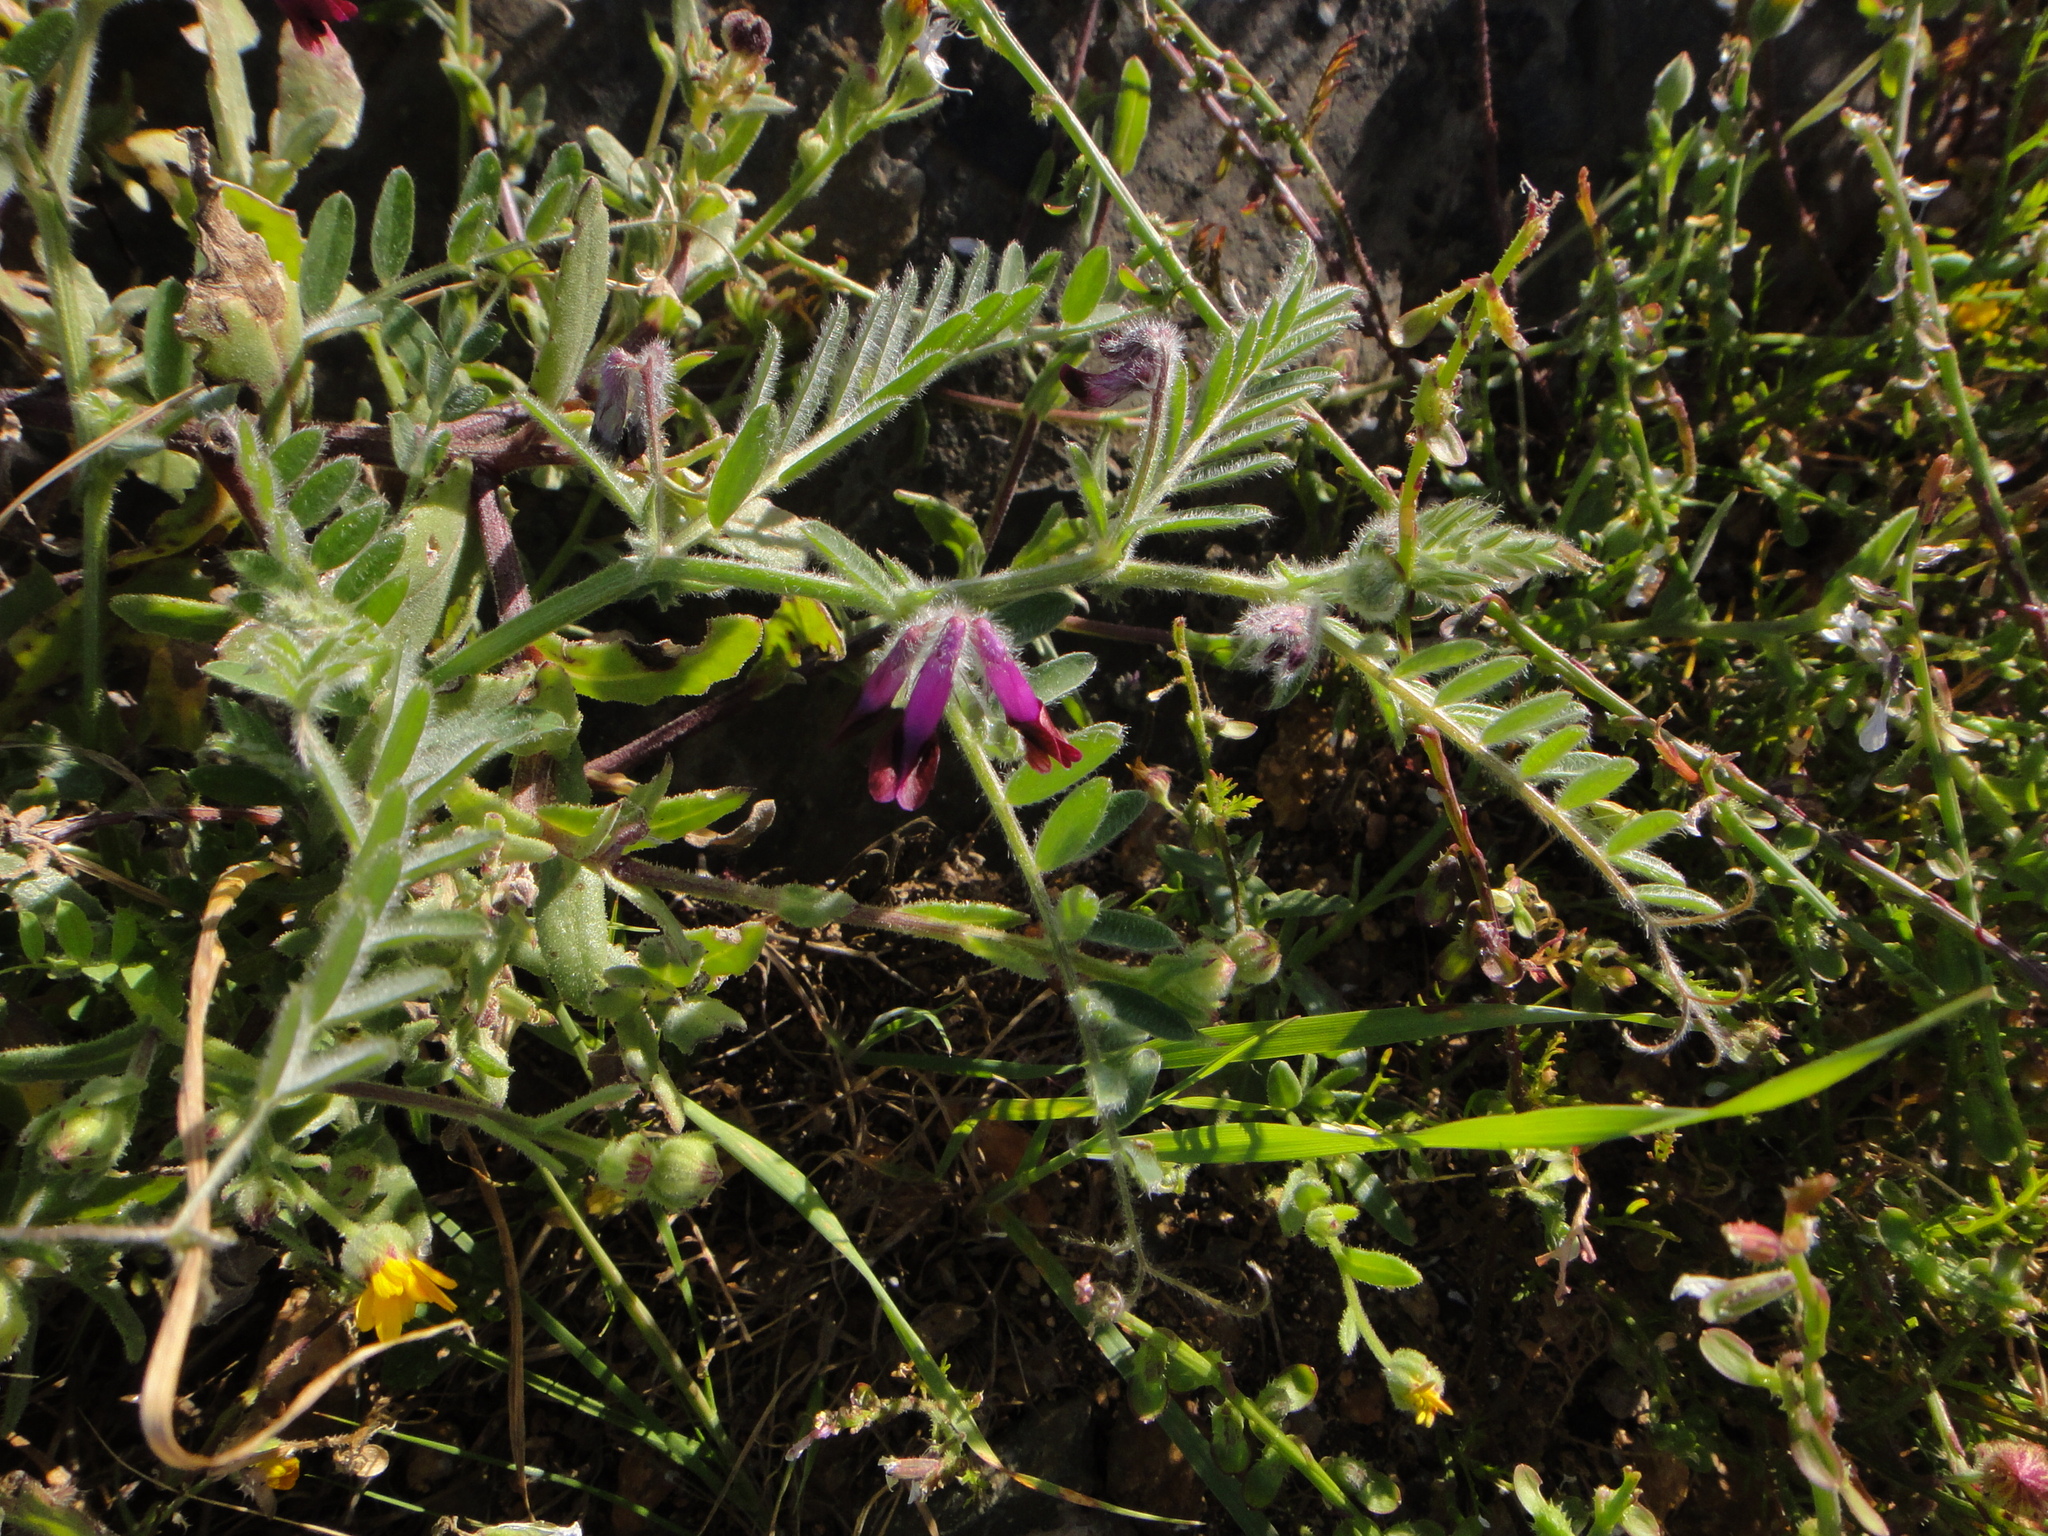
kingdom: Plantae
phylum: Tracheophyta
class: Magnoliopsida
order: Fabales
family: Fabaceae
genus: Vicia
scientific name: Vicia benghalensis
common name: Purple vetch
